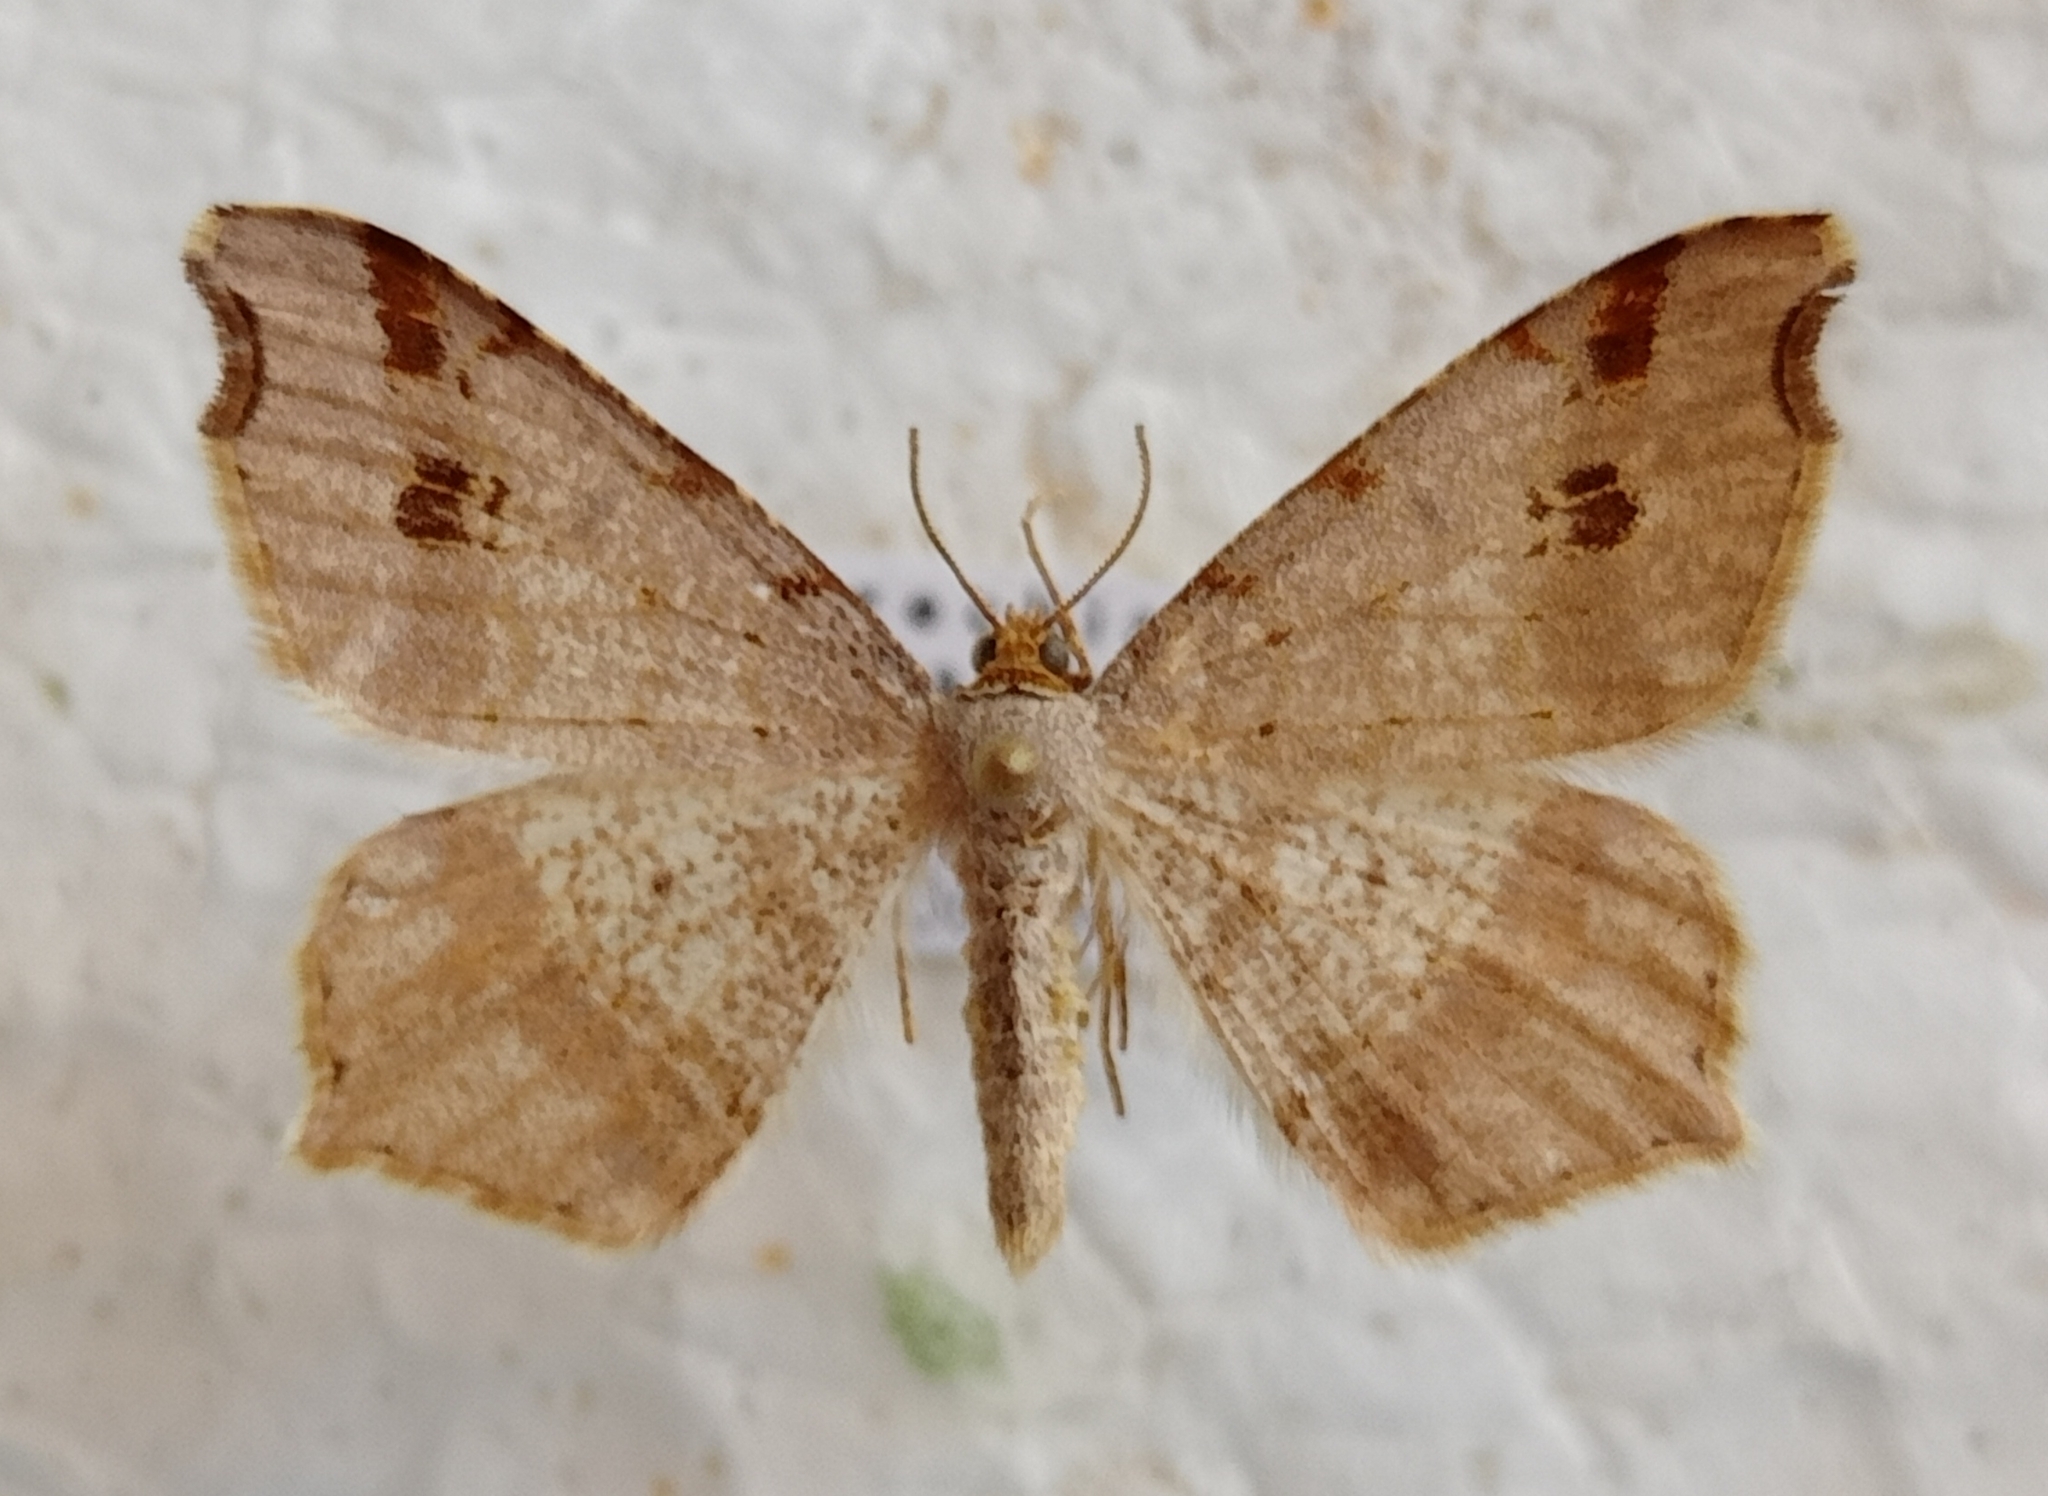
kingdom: Animalia
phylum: Arthropoda
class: Insecta
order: Lepidoptera
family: Geometridae
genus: Macaria
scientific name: Macaria alternata
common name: Sharp-angled peacock
